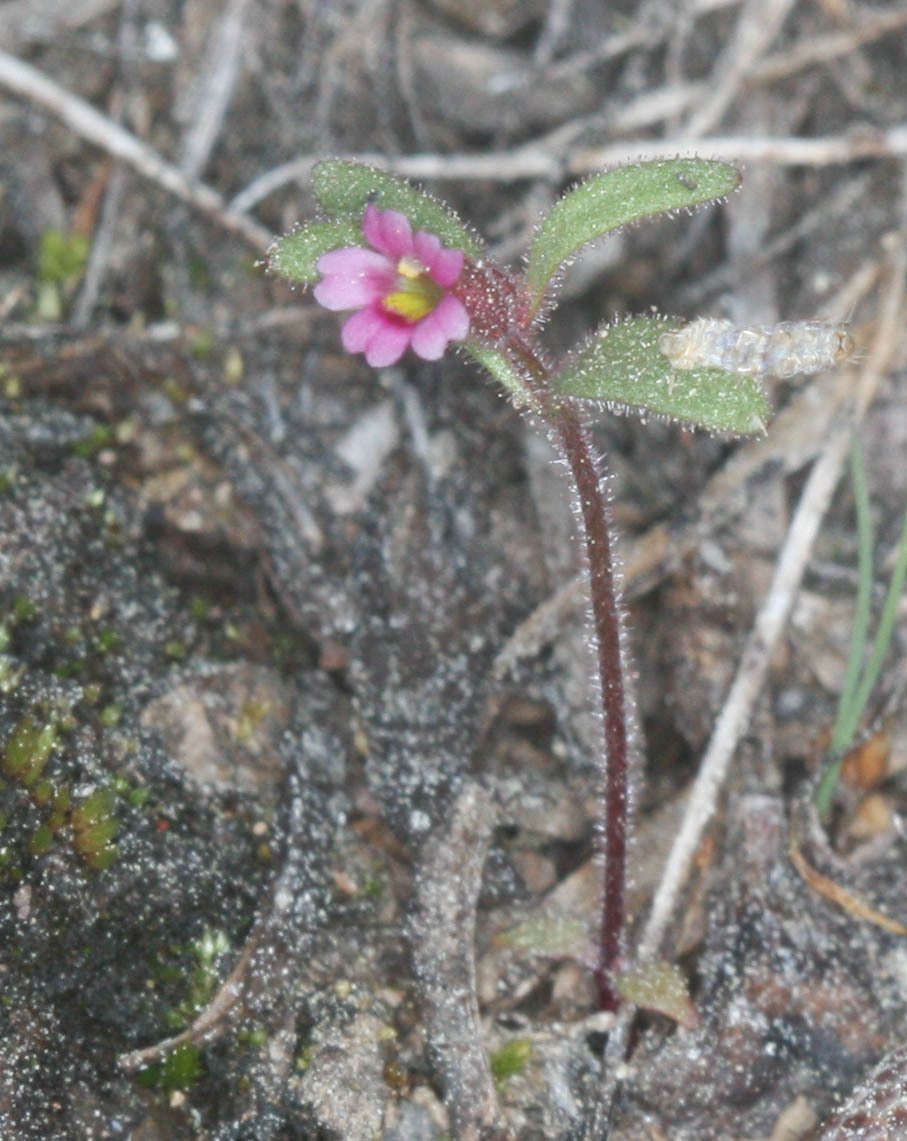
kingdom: Plantae
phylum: Tracheophyta
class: Magnoliopsida
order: Lamiales
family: Phrymaceae
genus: Erythranthe
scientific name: Erythranthe breweri
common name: Brewer's monkeyflower
